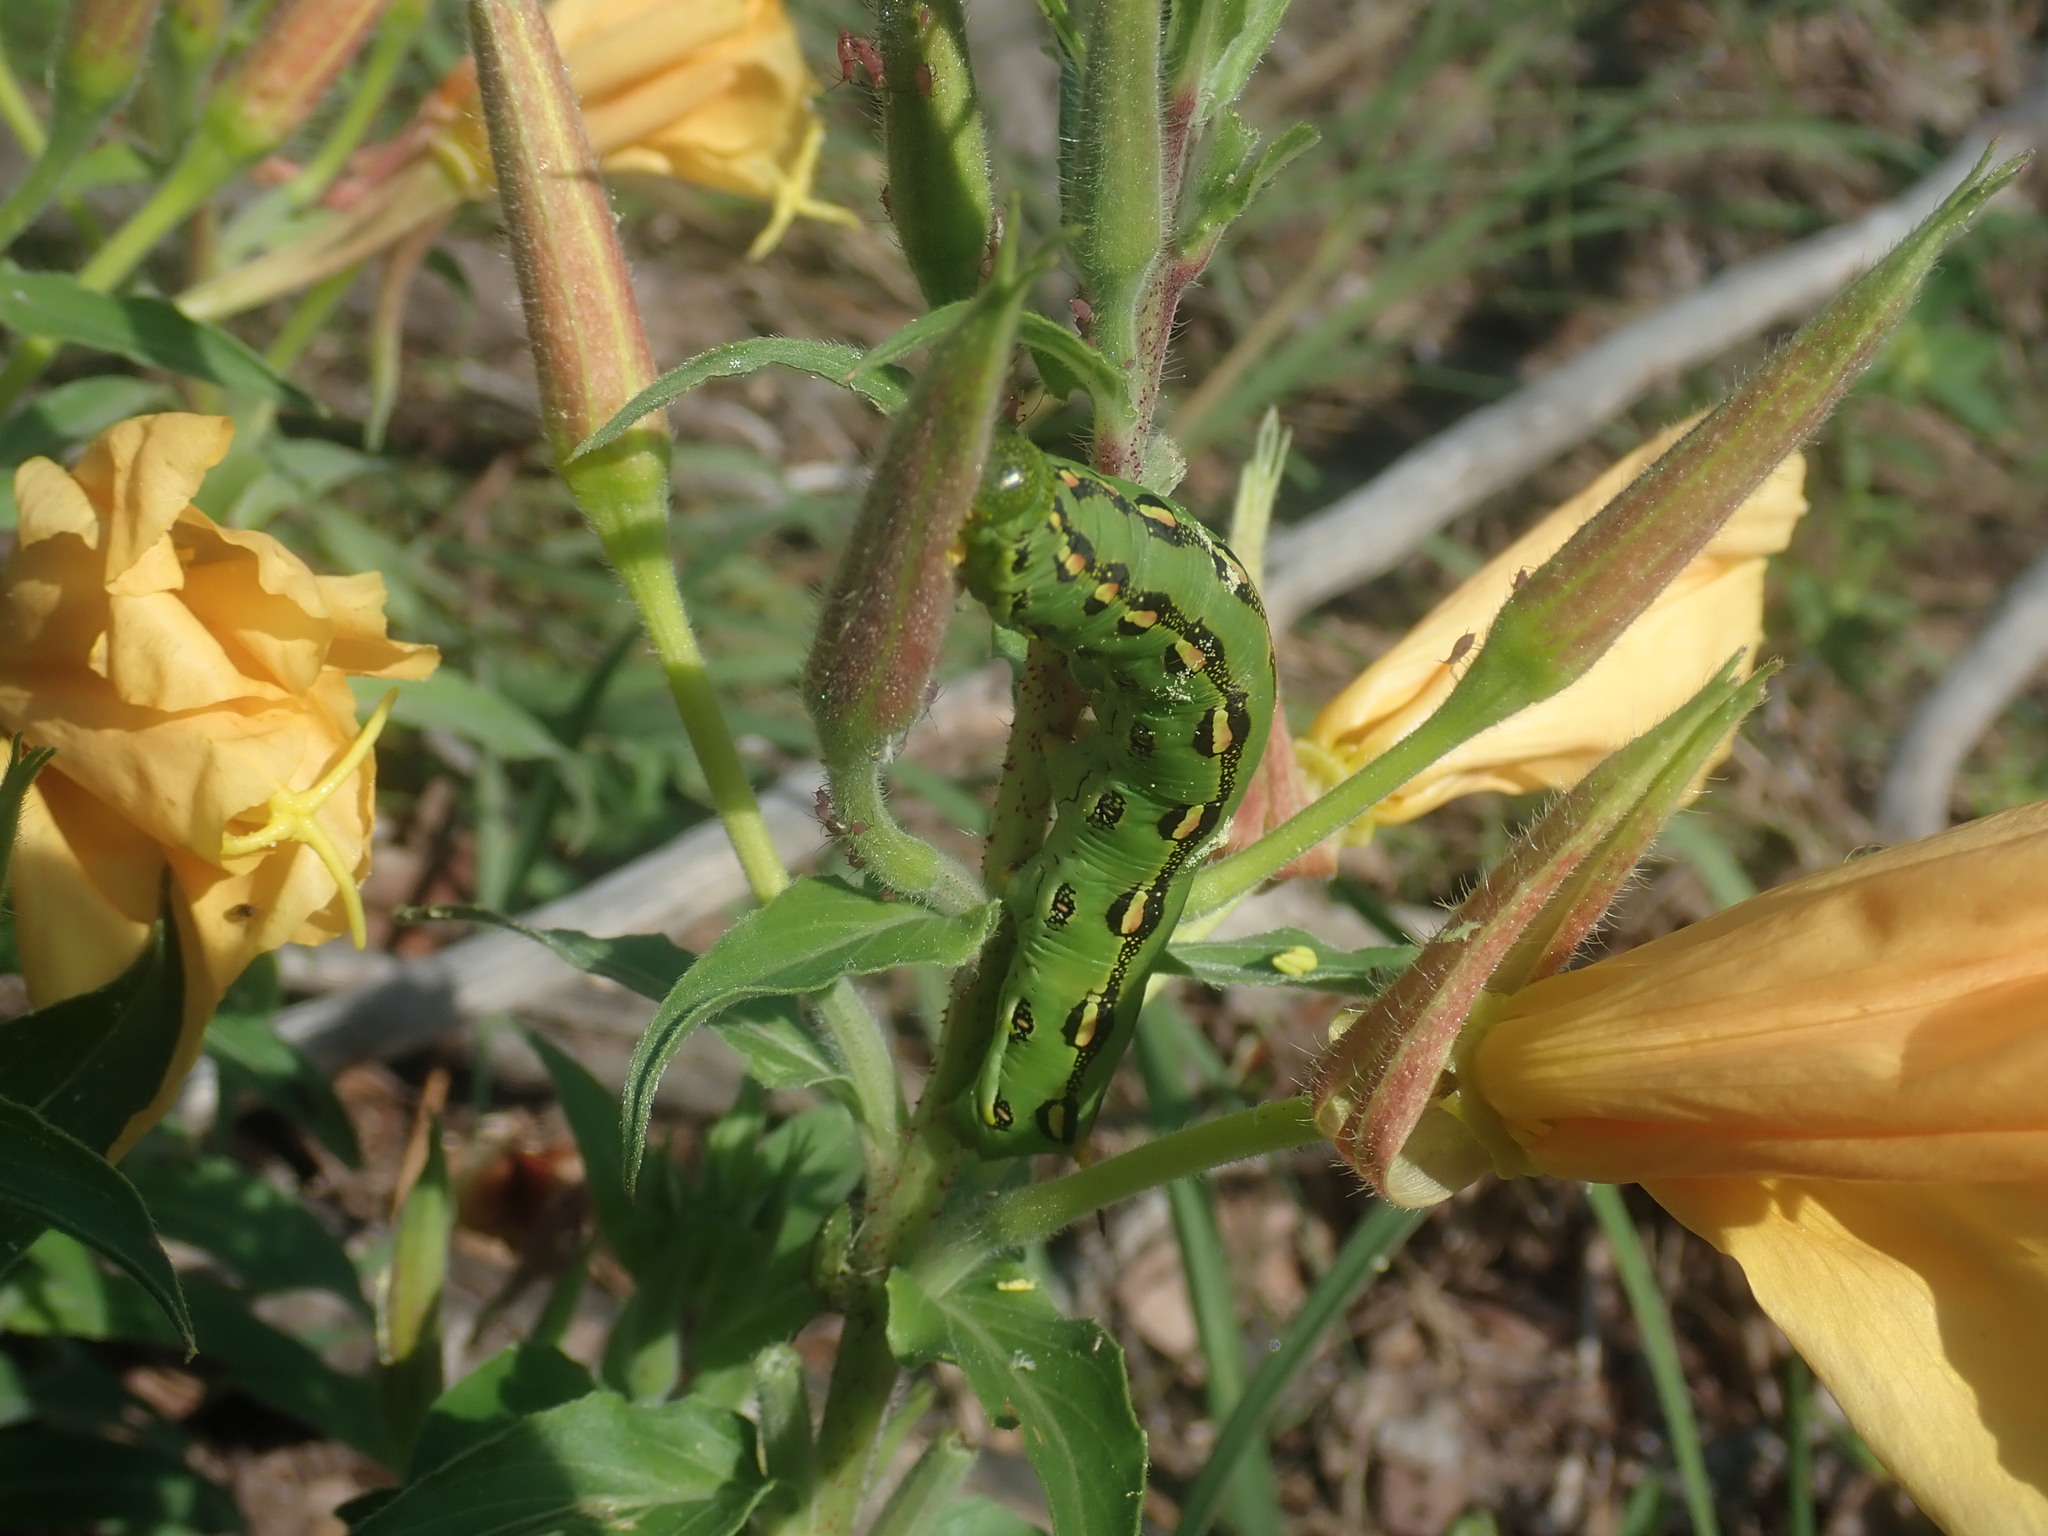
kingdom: Animalia
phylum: Arthropoda
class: Insecta
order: Lepidoptera
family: Sphingidae
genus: Hyles
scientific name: Hyles lineata
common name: White-lined sphinx
